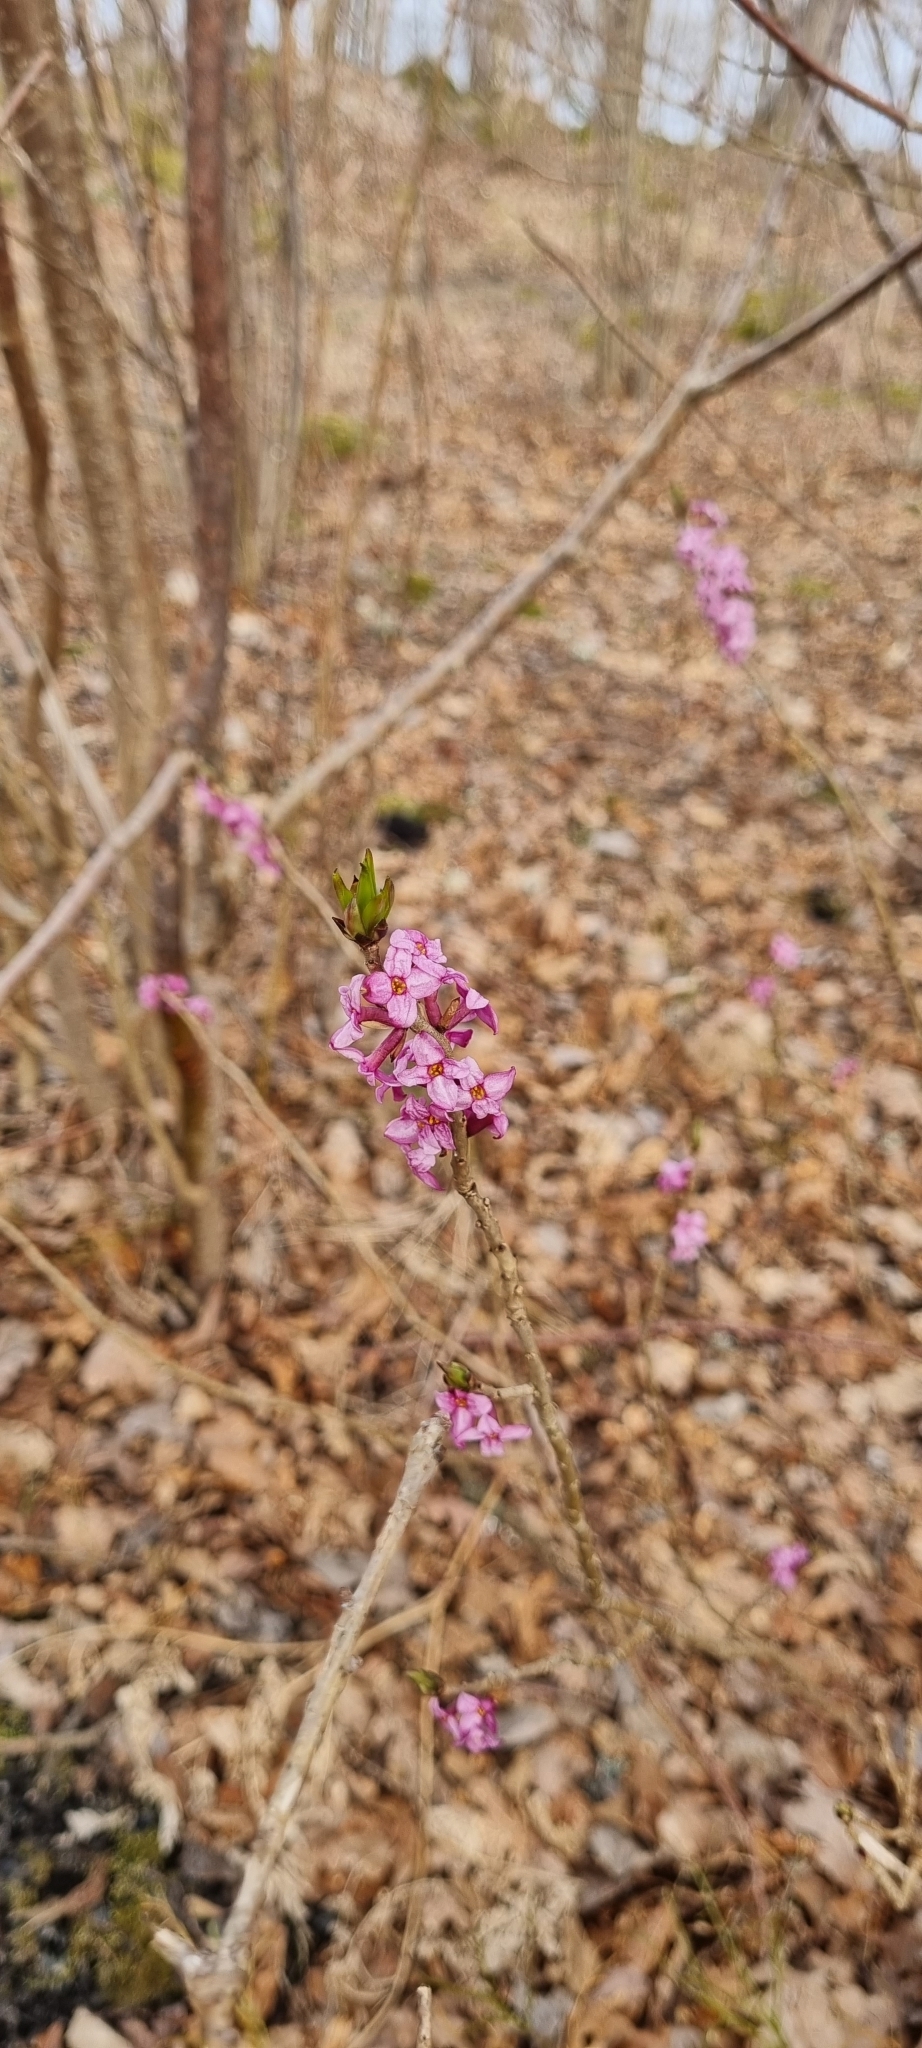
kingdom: Plantae
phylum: Tracheophyta
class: Magnoliopsida
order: Malvales
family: Thymelaeaceae
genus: Daphne
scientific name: Daphne mezereum
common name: Mezereon
